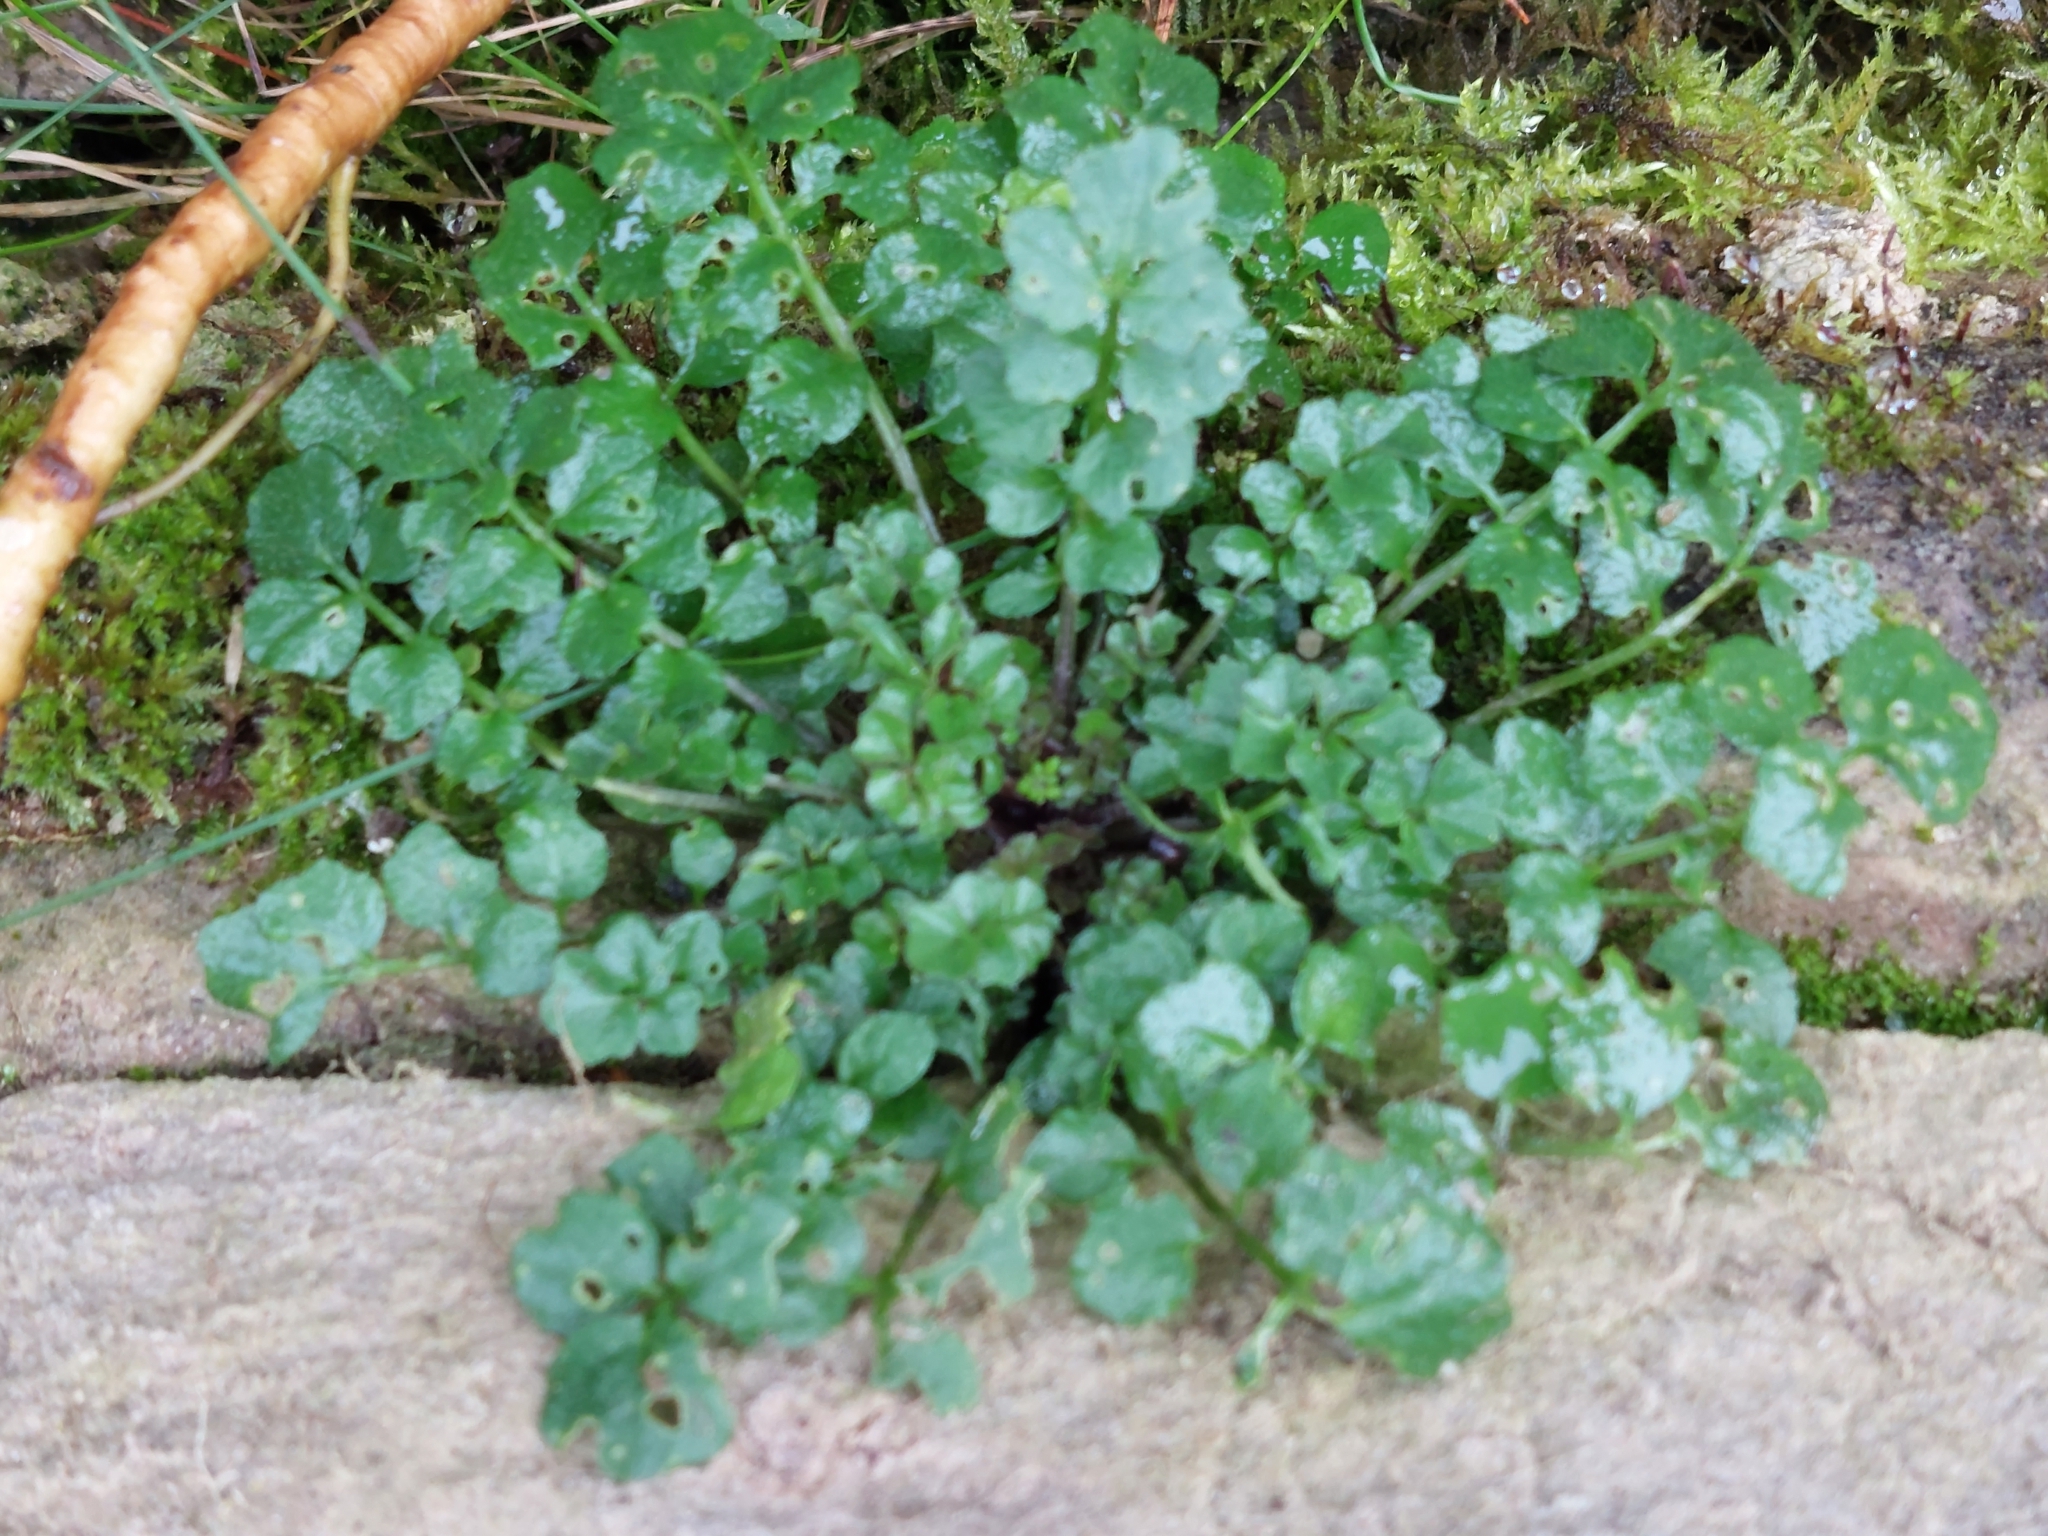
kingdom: Plantae
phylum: Tracheophyta
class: Magnoliopsida
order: Brassicales
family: Brassicaceae
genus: Cardamine
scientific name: Cardamine flexuosa
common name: Woodland bittercress
